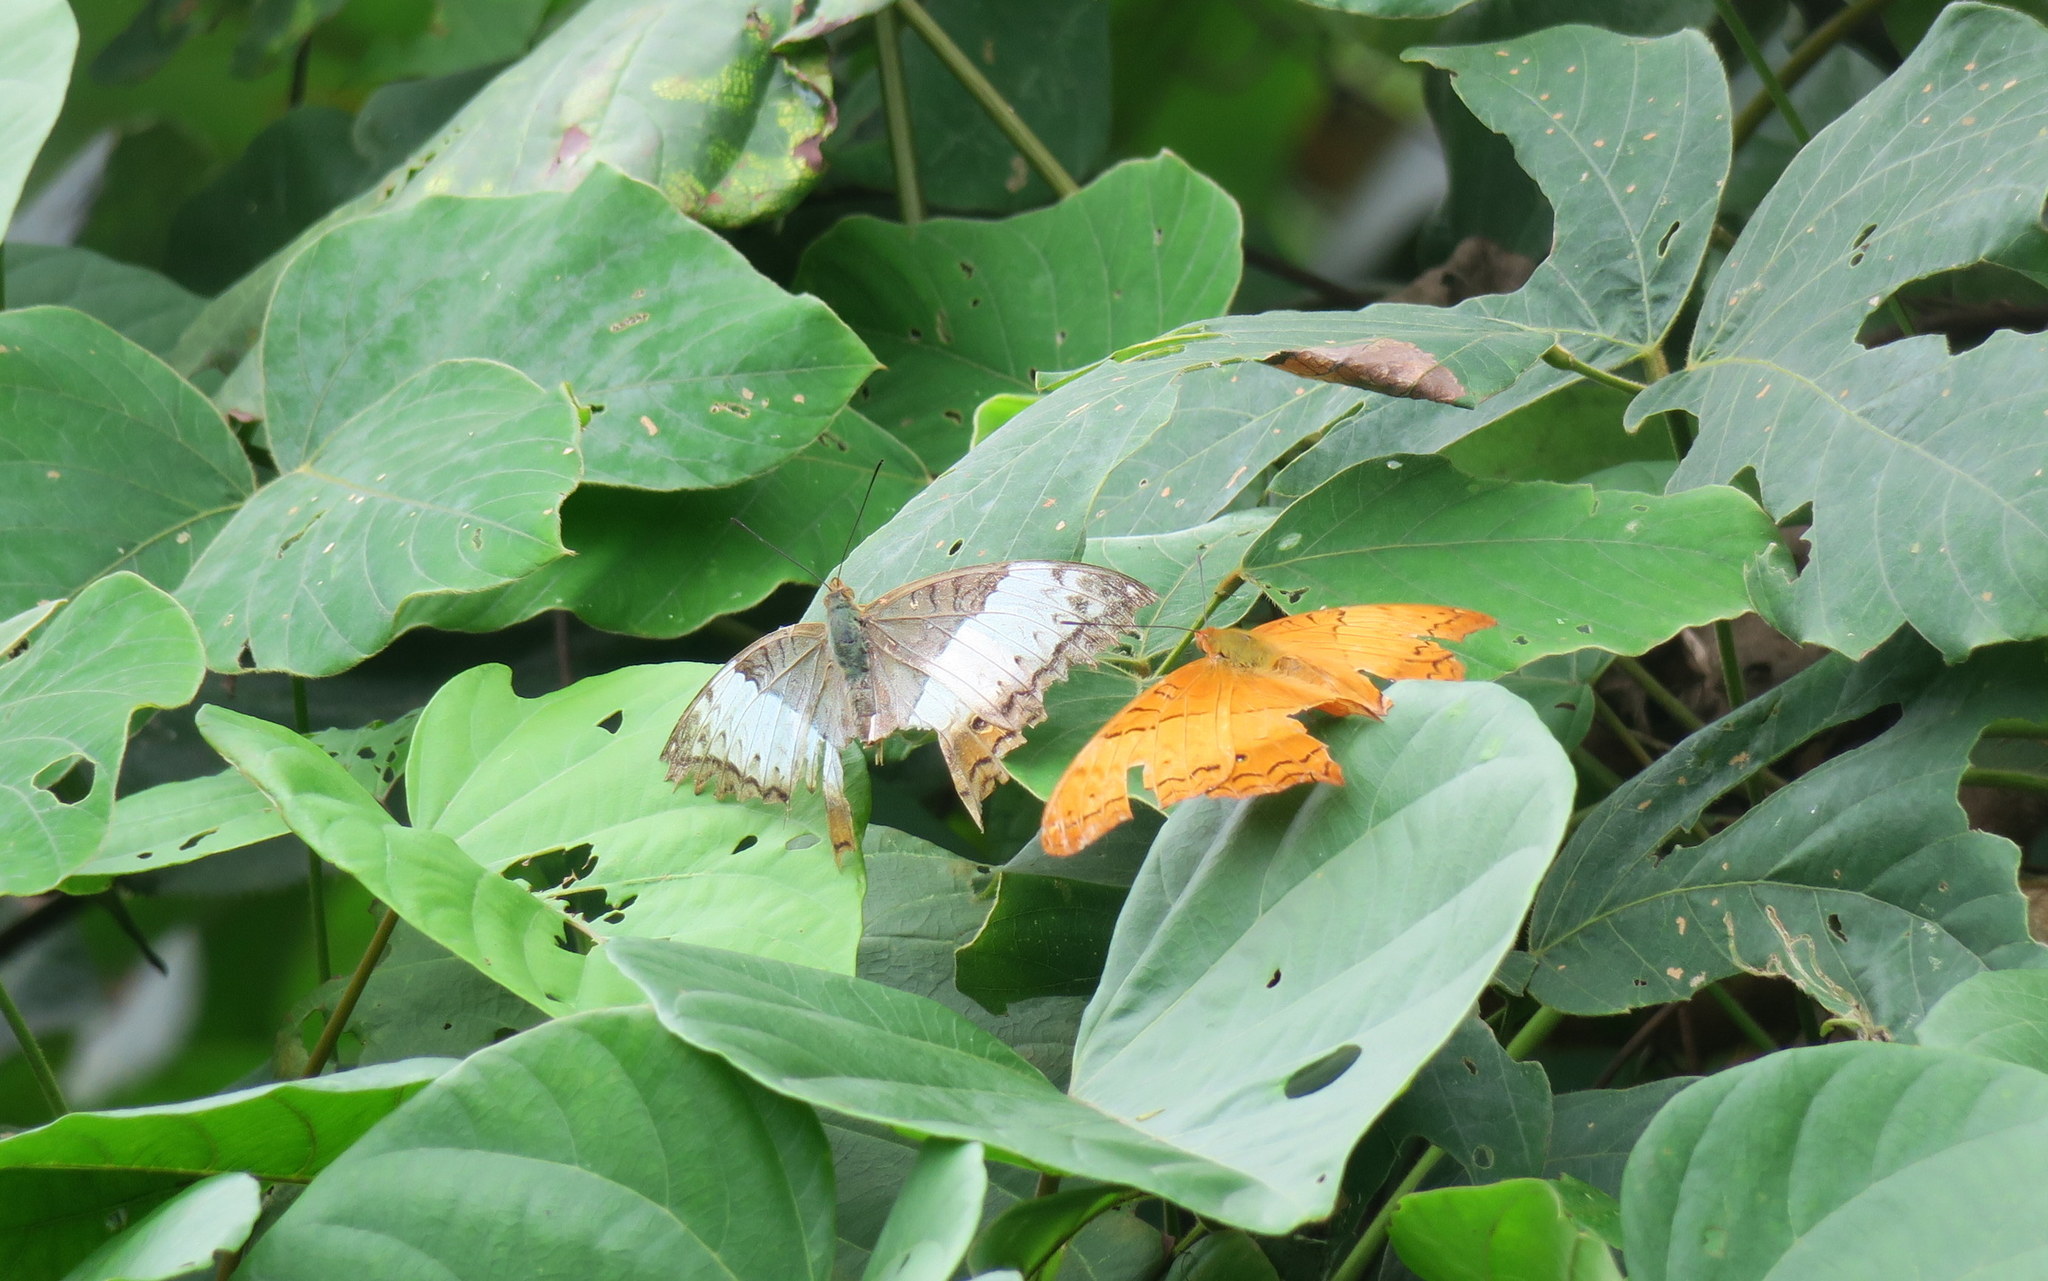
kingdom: Animalia
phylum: Arthropoda
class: Insecta
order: Lepidoptera
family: Nymphalidae
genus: Vindula
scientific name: Vindula erota
